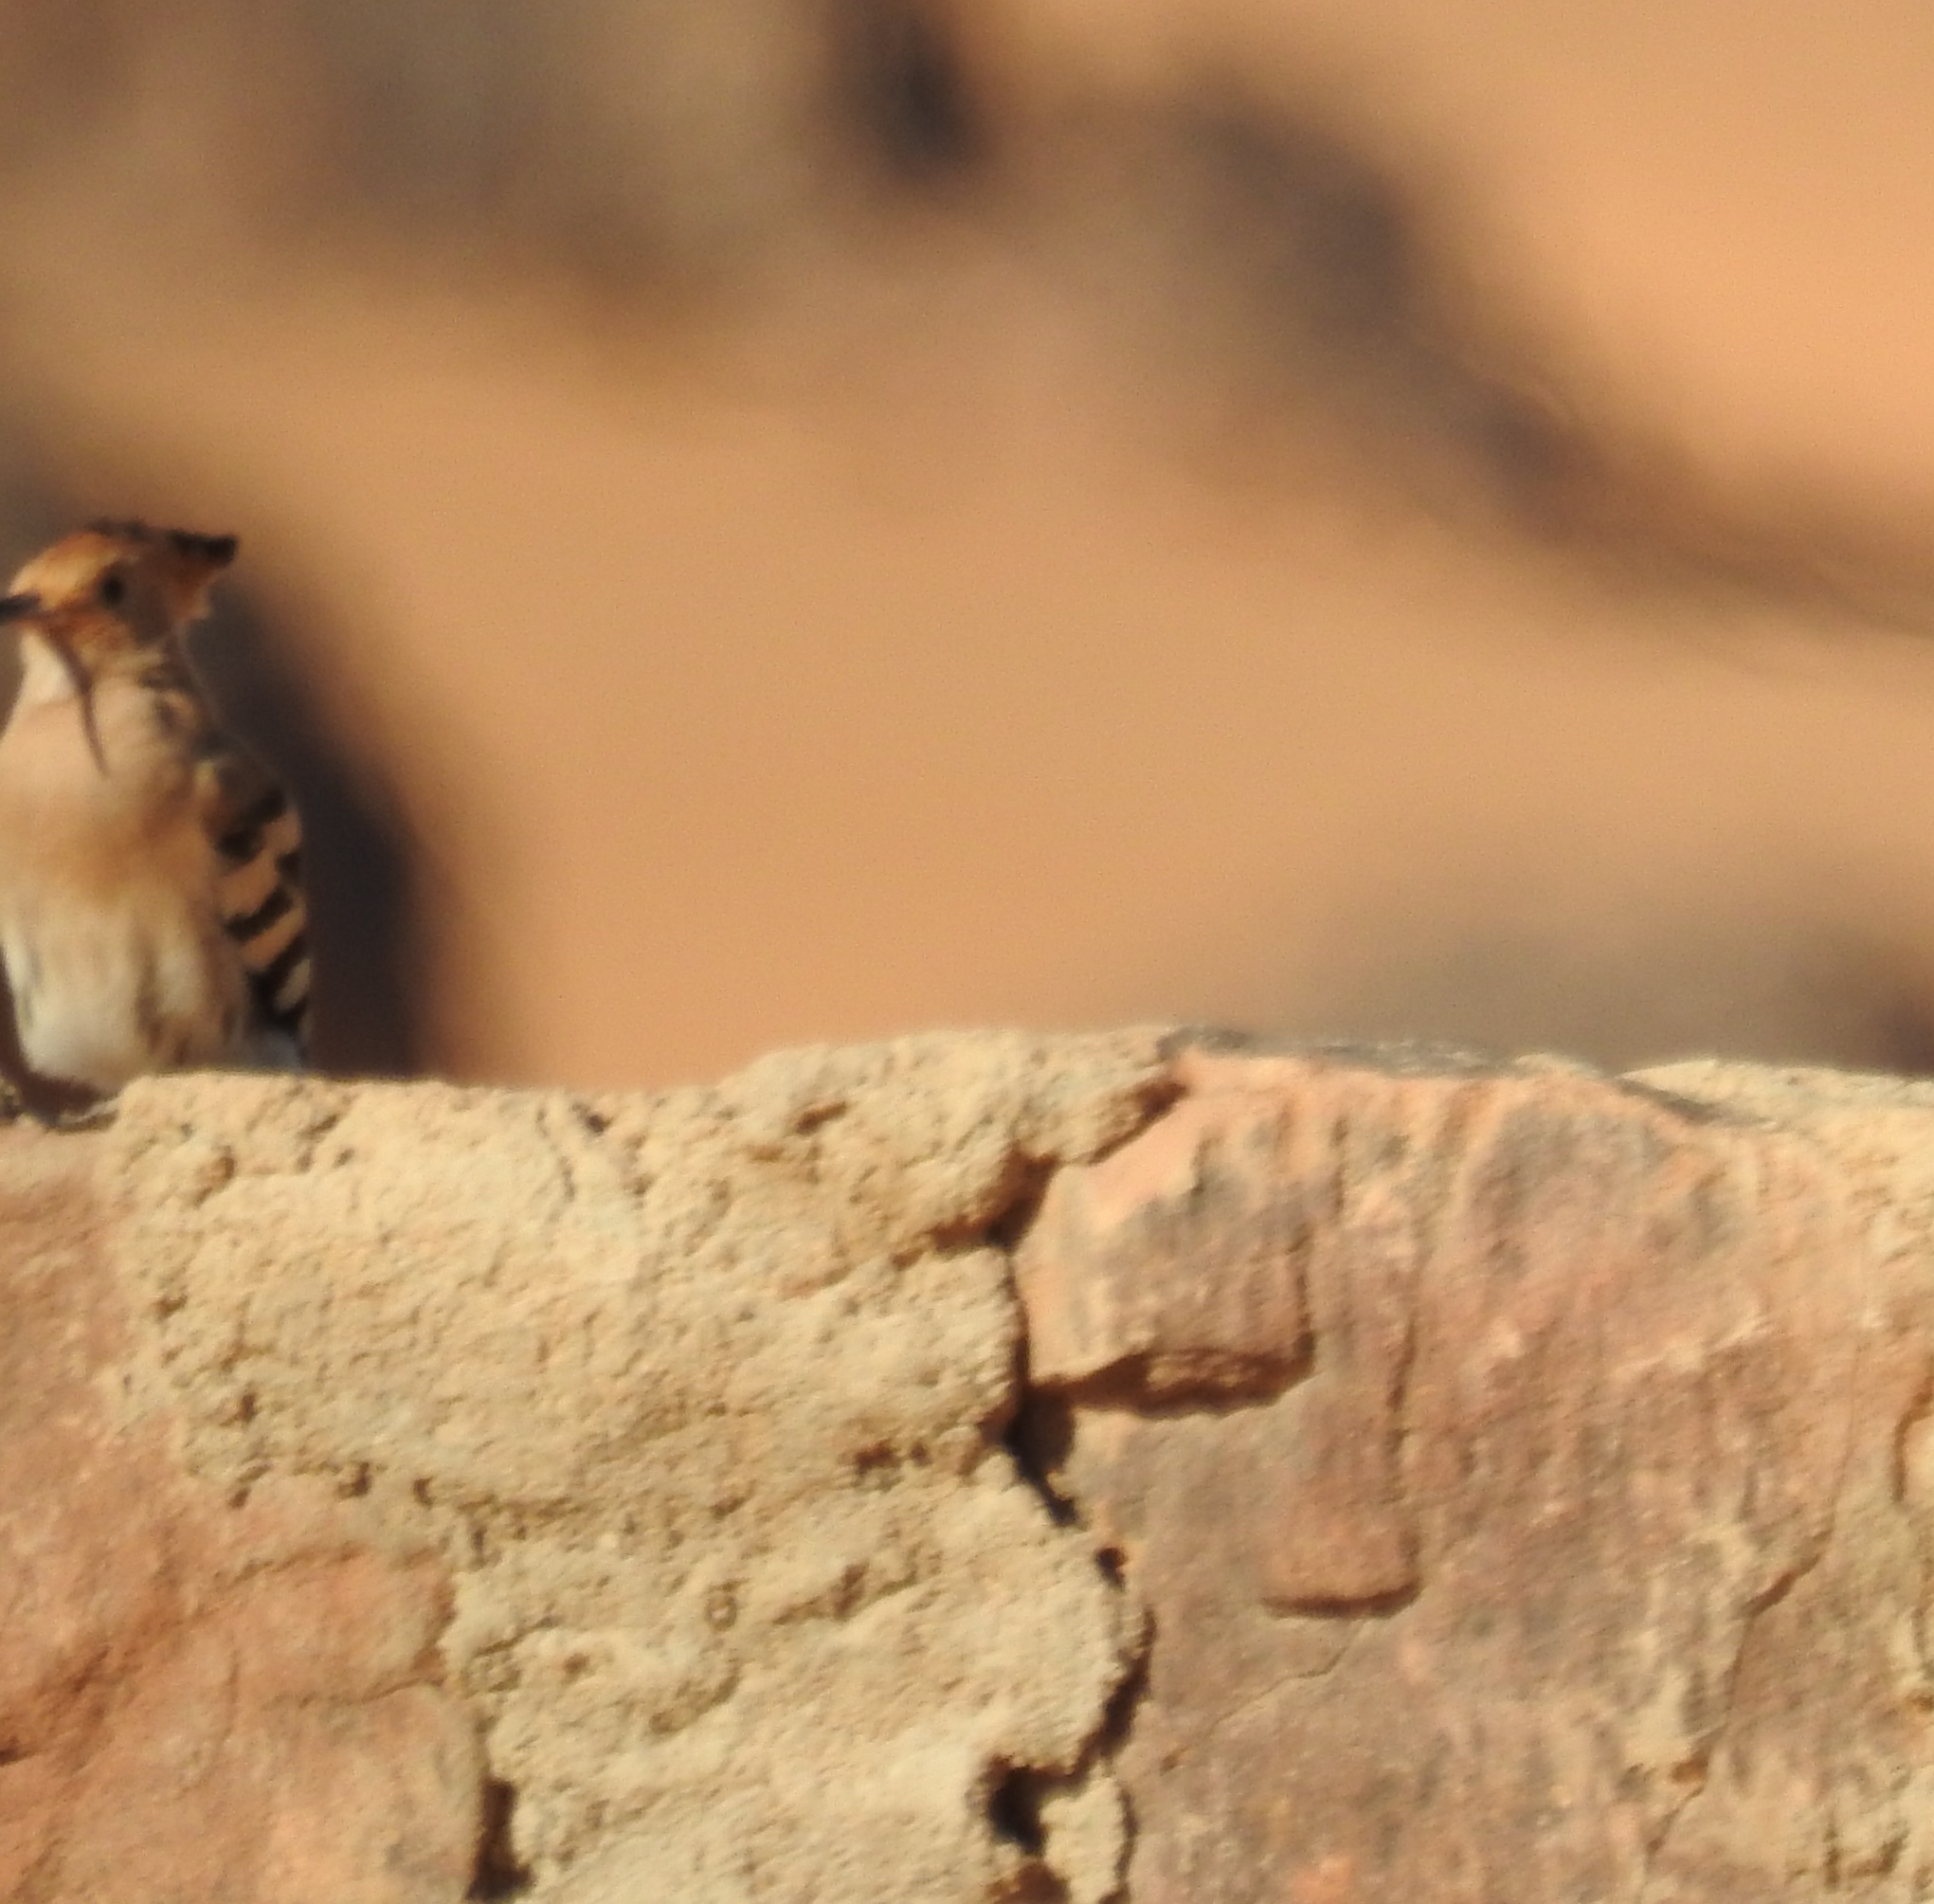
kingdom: Animalia
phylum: Chordata
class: Aves
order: Bucerotiformes
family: Upupidae
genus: Upupa
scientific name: Upupa epops
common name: Eurasian hoopoe
